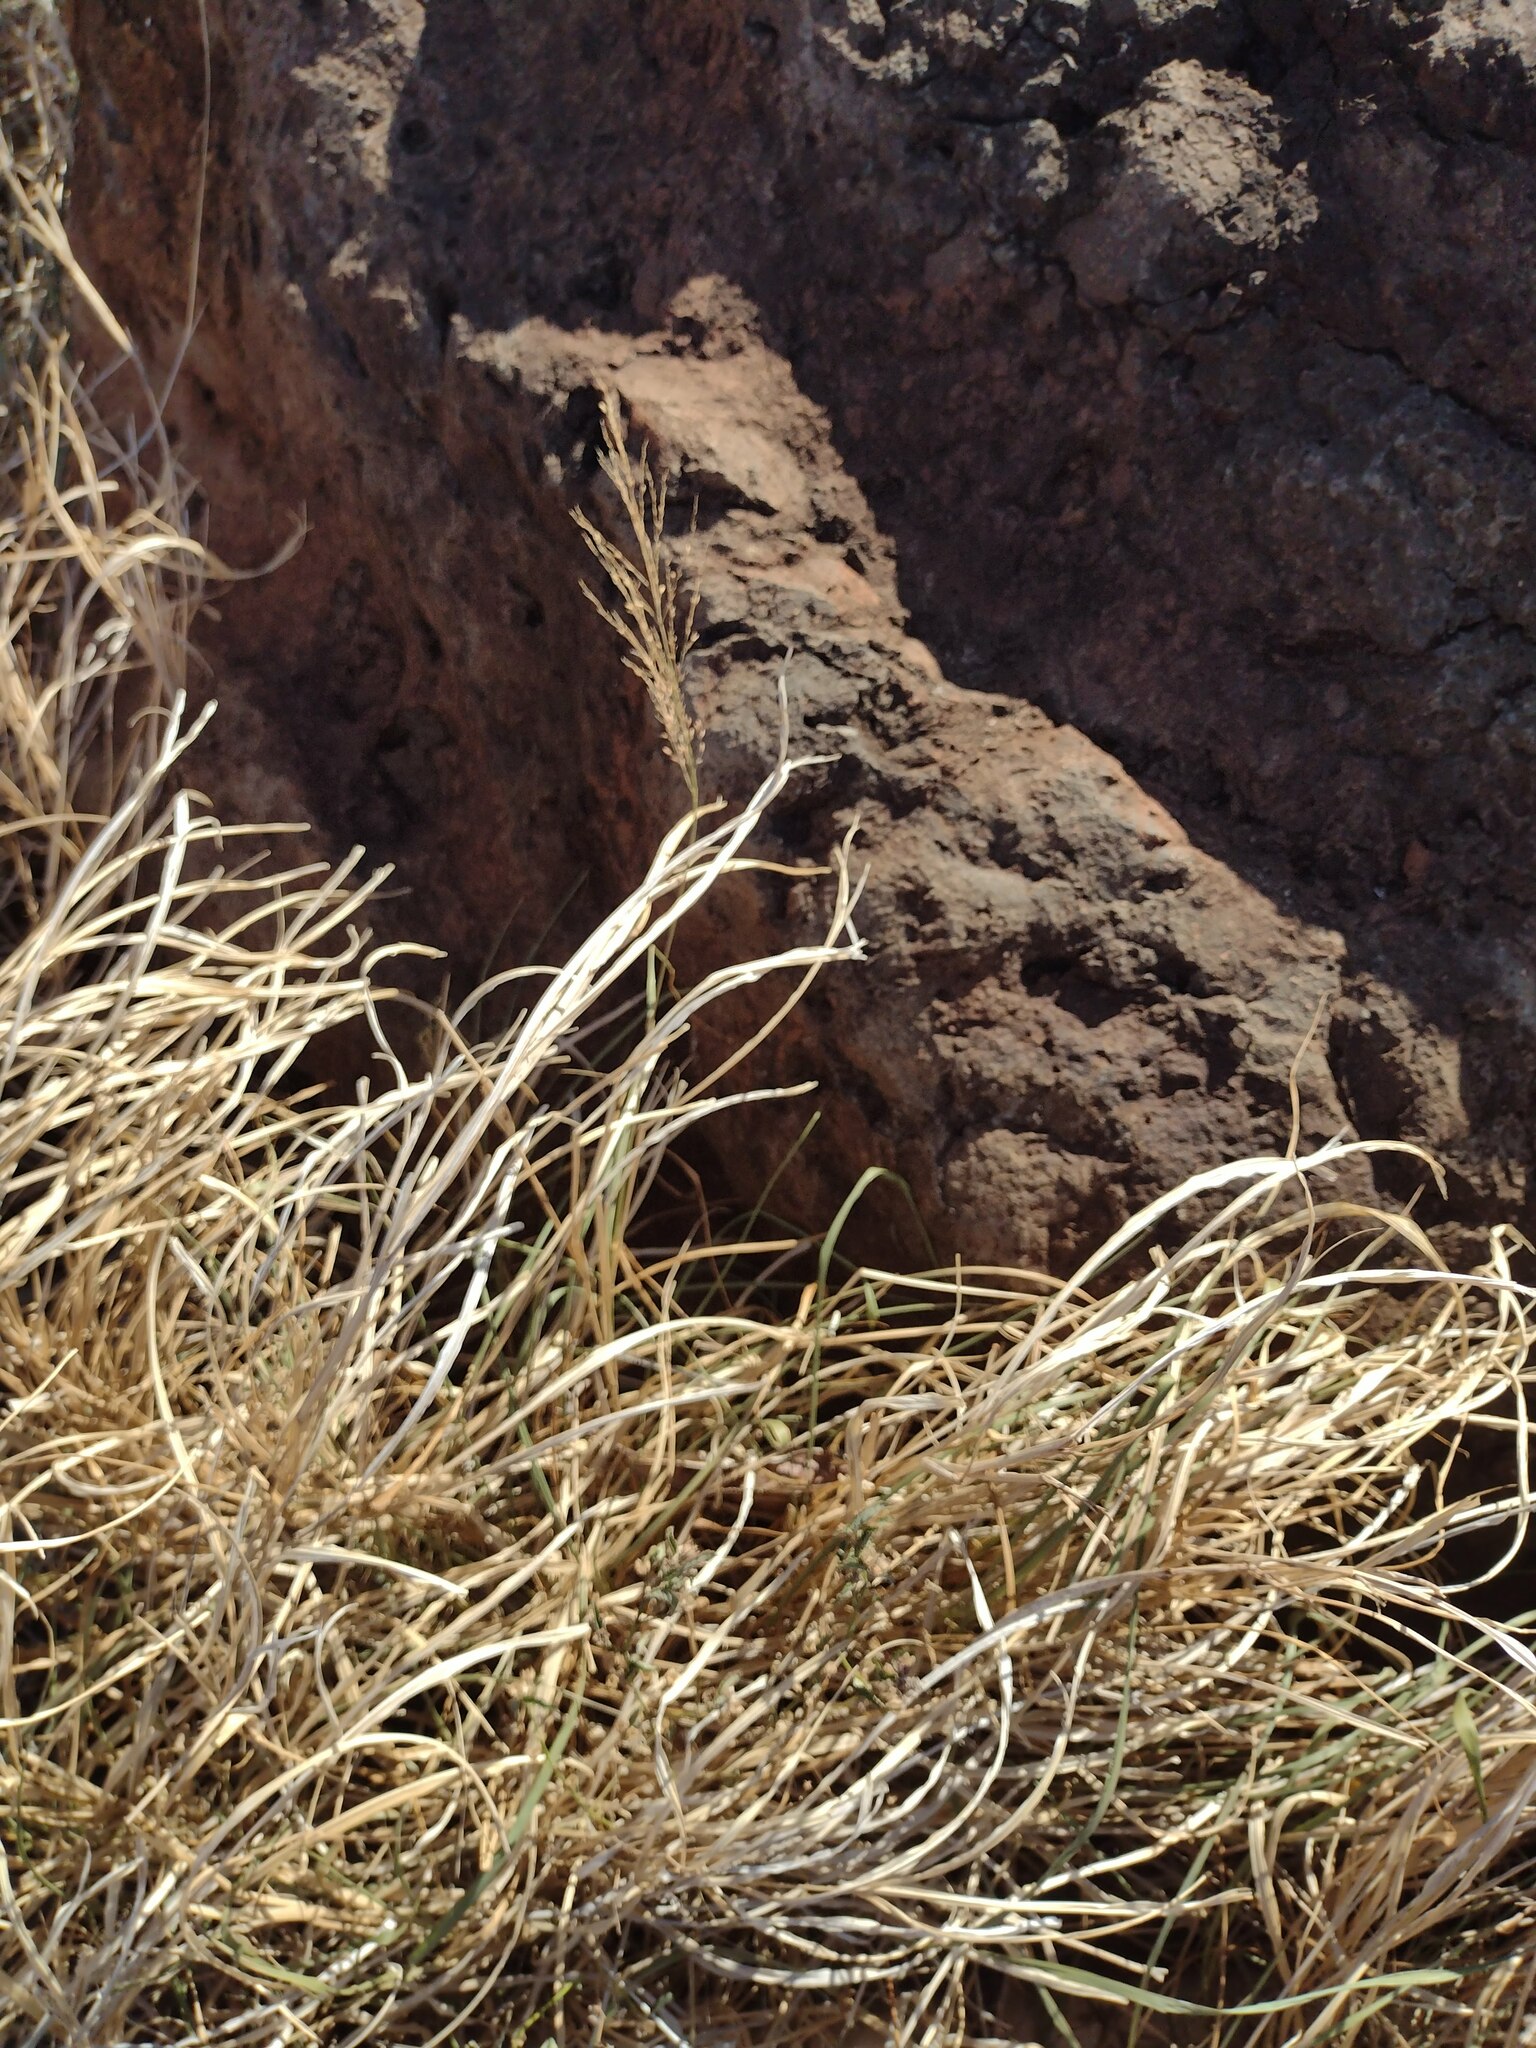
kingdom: Plantae
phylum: Tracheophyta
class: Liliopsida
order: Poales
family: Poaceae
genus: Megathyrsus
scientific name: Megathyrsus maximus
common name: Guineagrass
